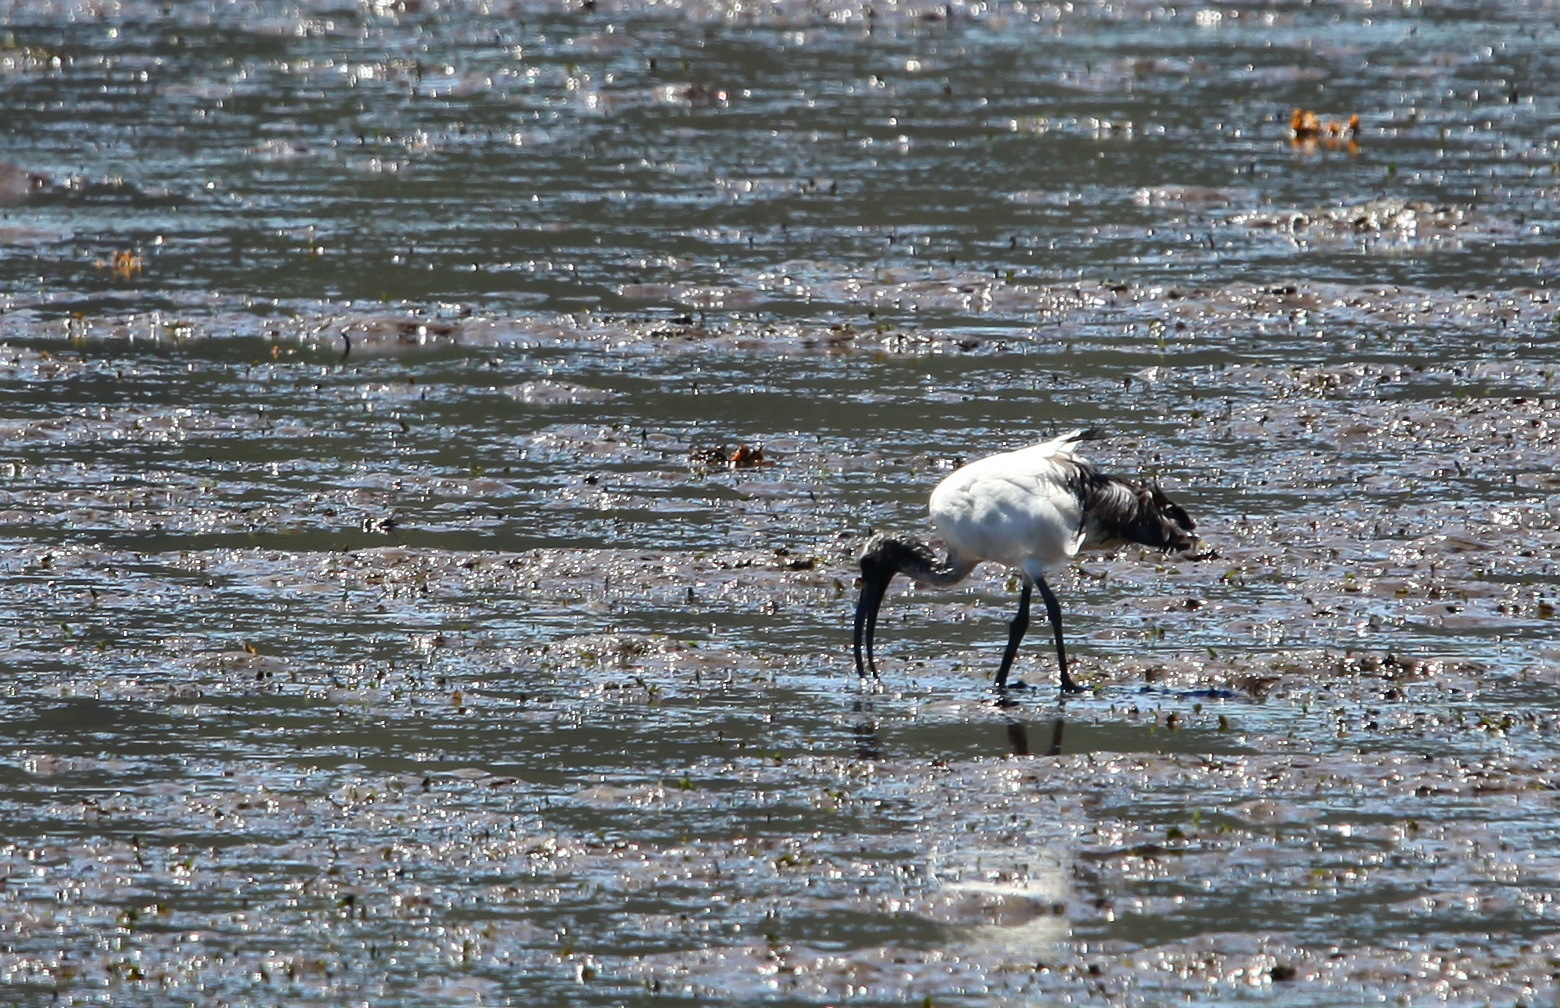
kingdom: Animalia
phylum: Chordata
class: Aves
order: Pelecaniformes
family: Threskiornithidae
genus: Threskiornis
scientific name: Threskiornis aethiopicus
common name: Sacred ibis
